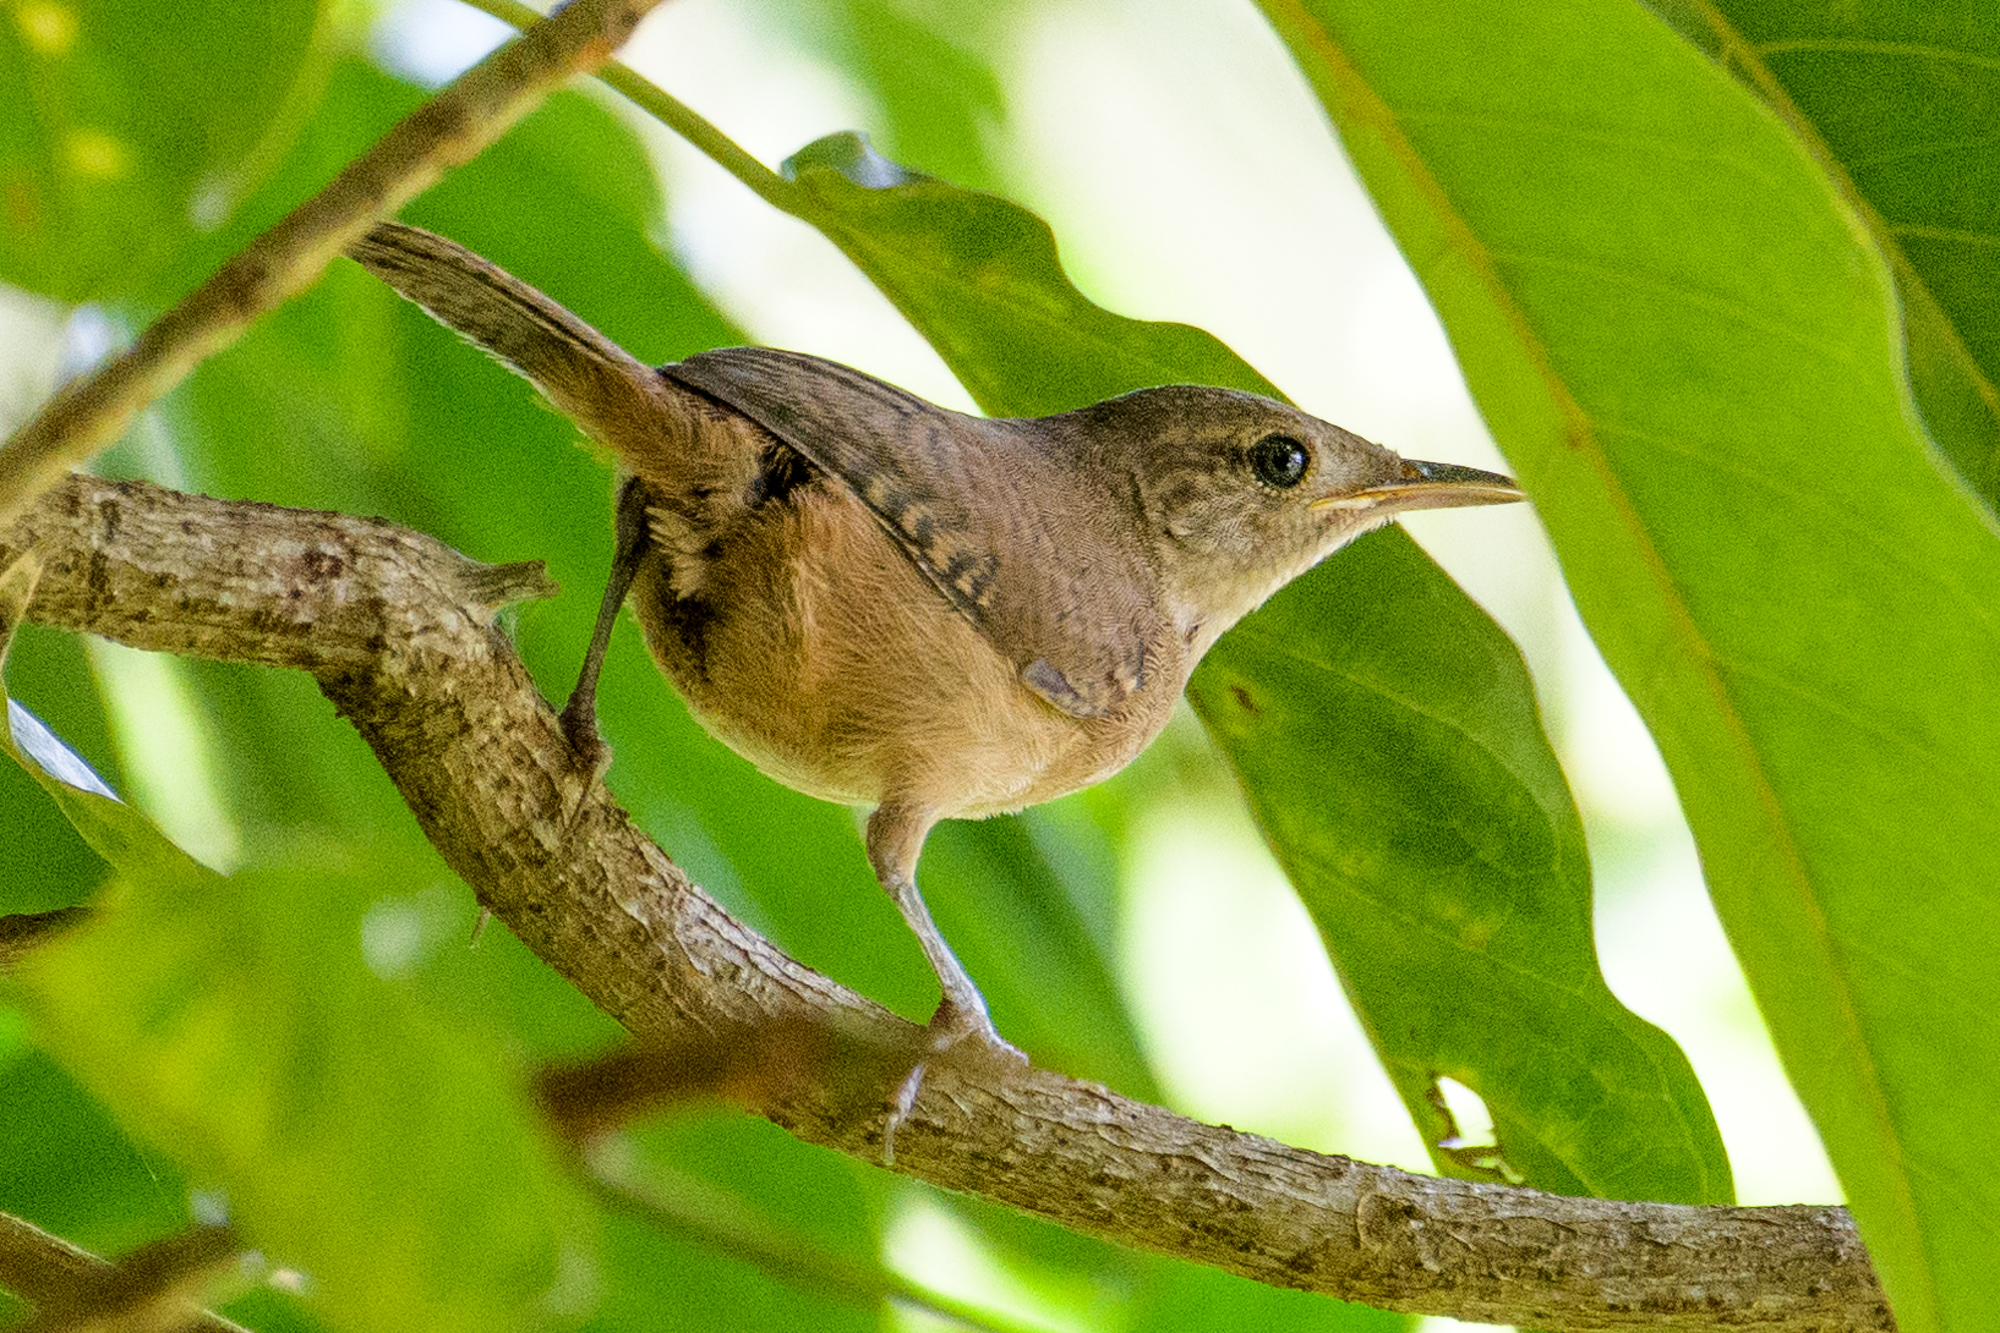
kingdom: Animalia
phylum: Chordata
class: Aves
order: Passeriformes
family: Troglodytidae
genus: Troglodytes
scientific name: Troglodytes aedon
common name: House wren
